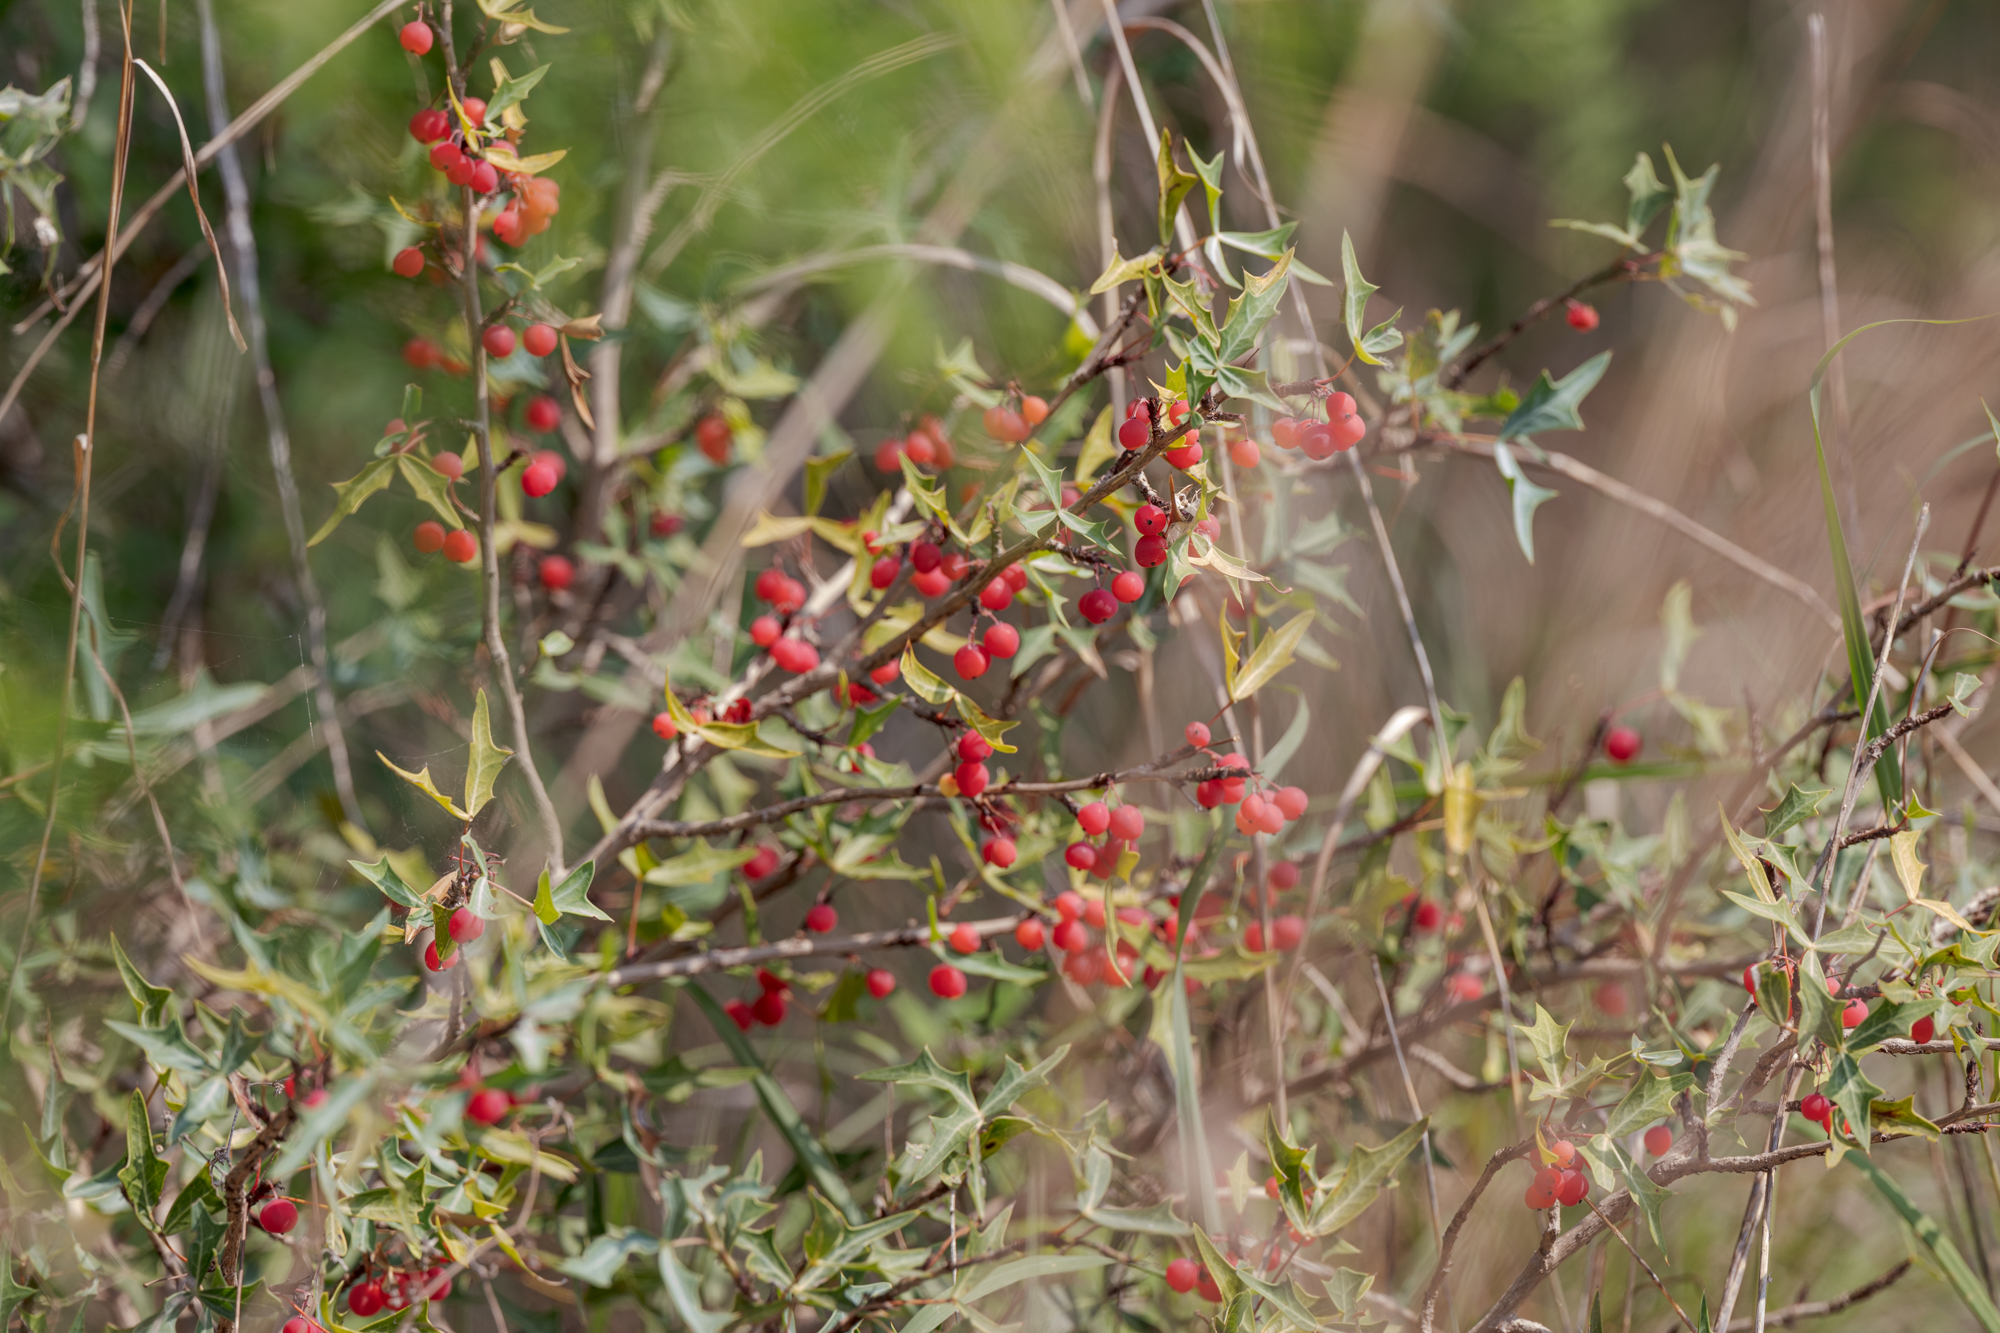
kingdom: Plantae
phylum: Tracheophyta
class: Magnoliopsida
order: Ranunculales
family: Berberidaceae
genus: Alloberberis
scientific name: Alloberberis trifoliolata
